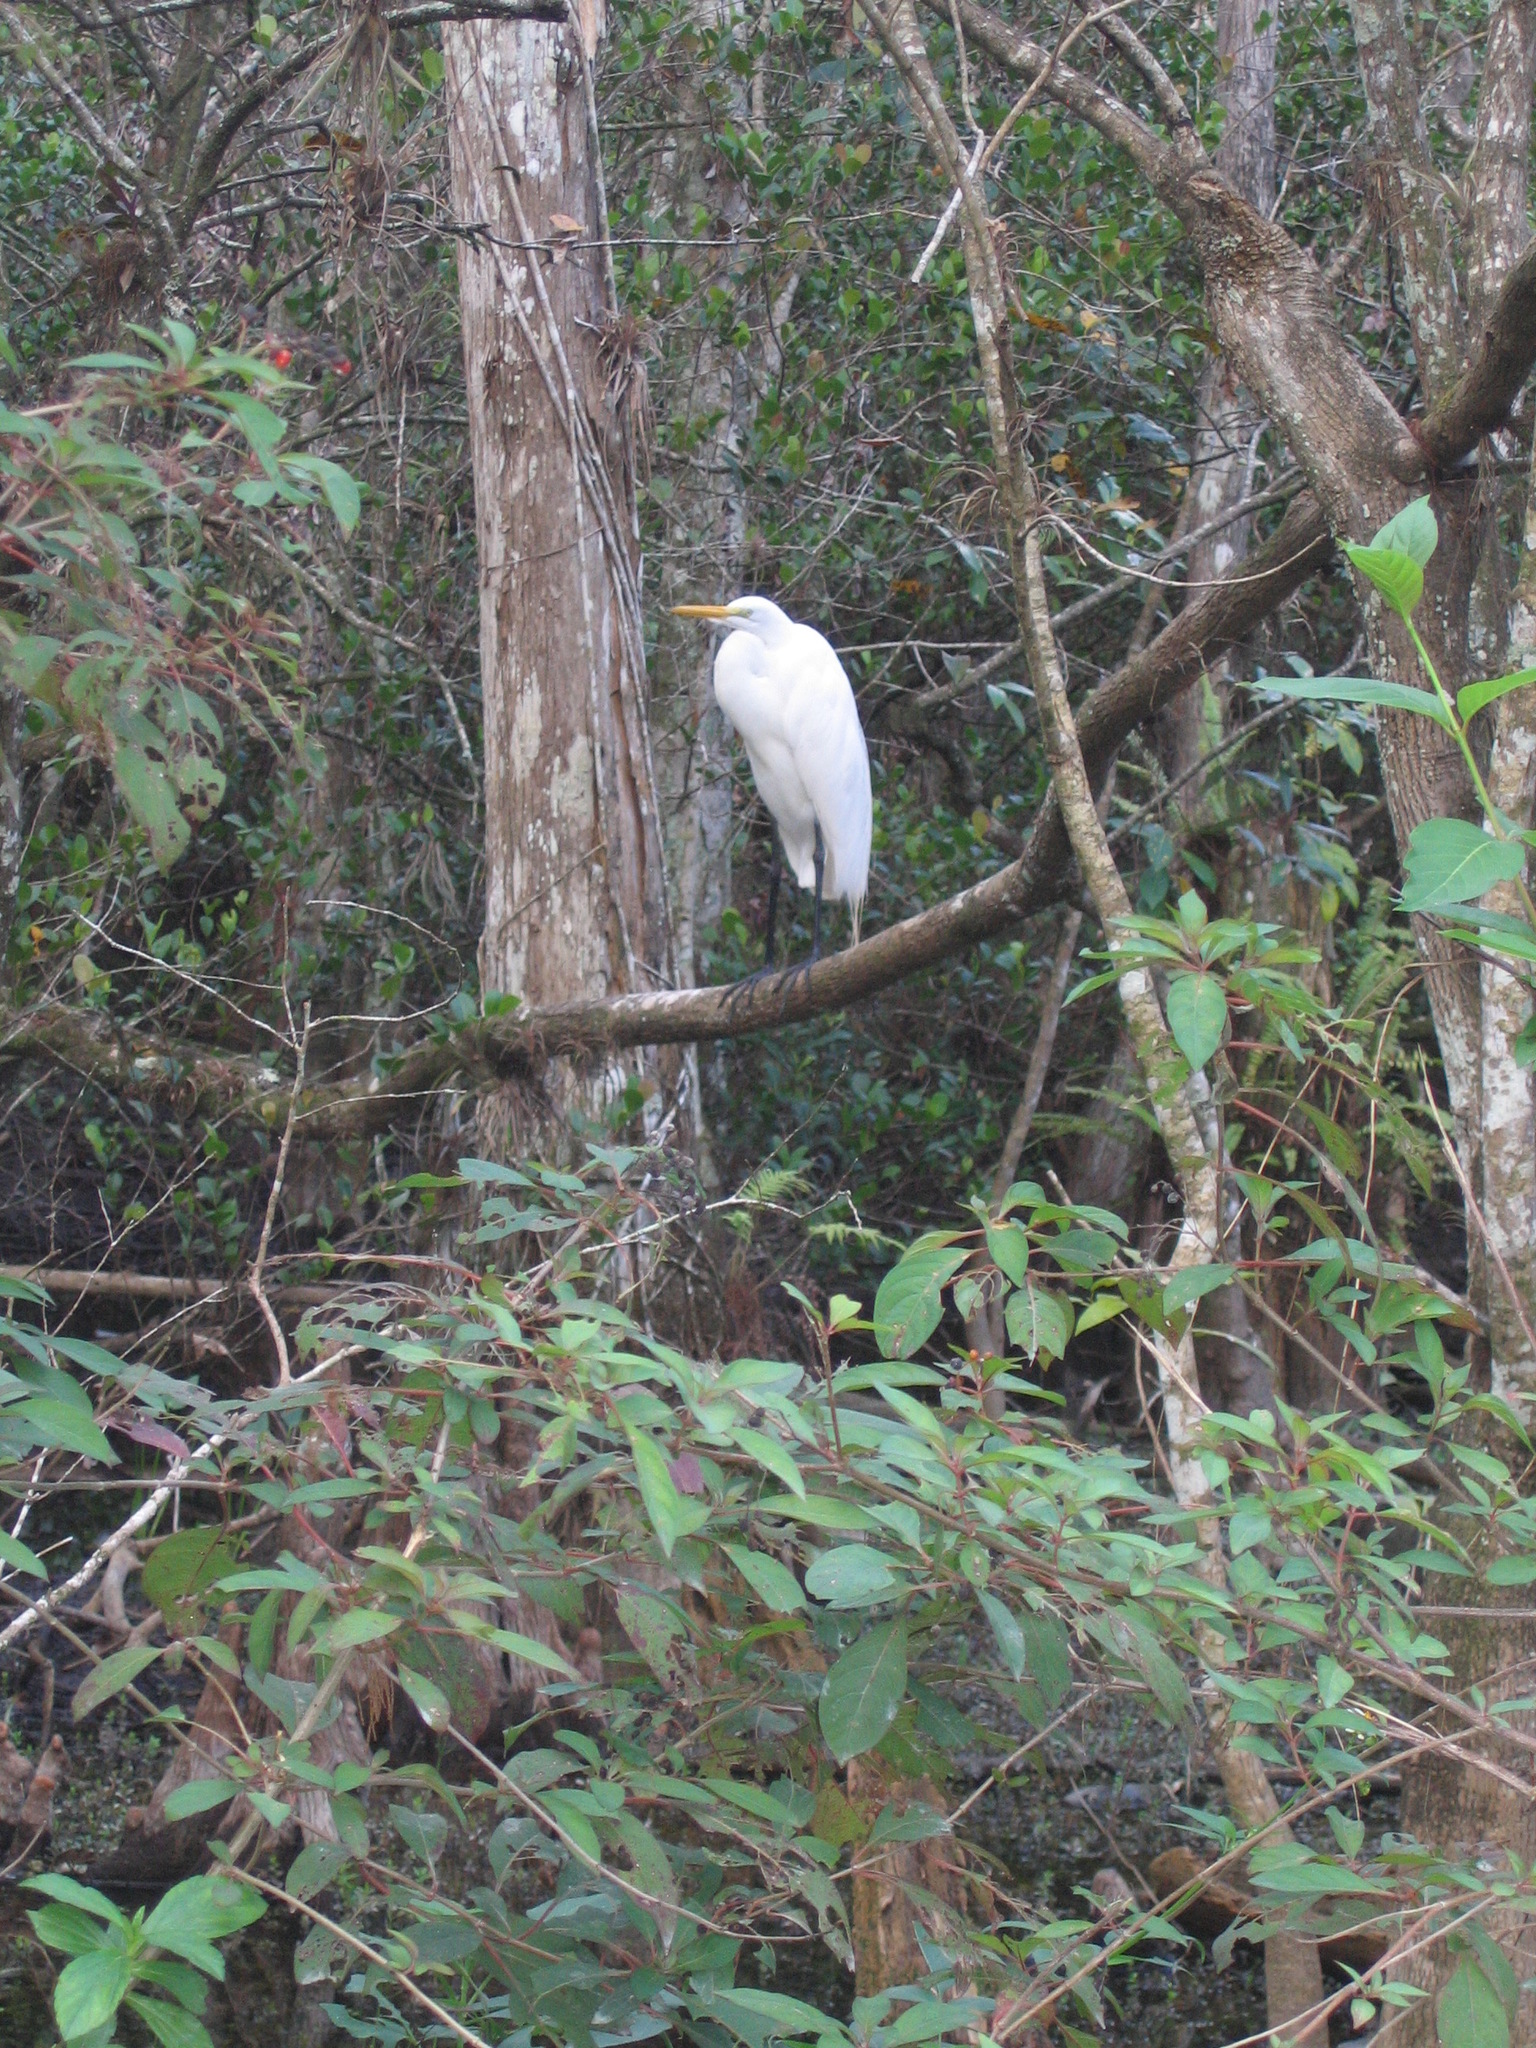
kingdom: Animalia
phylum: Chordata
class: Aves
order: Pelecaniformes
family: Ardeidae
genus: Ardea
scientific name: Ardea alba
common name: Great egret
